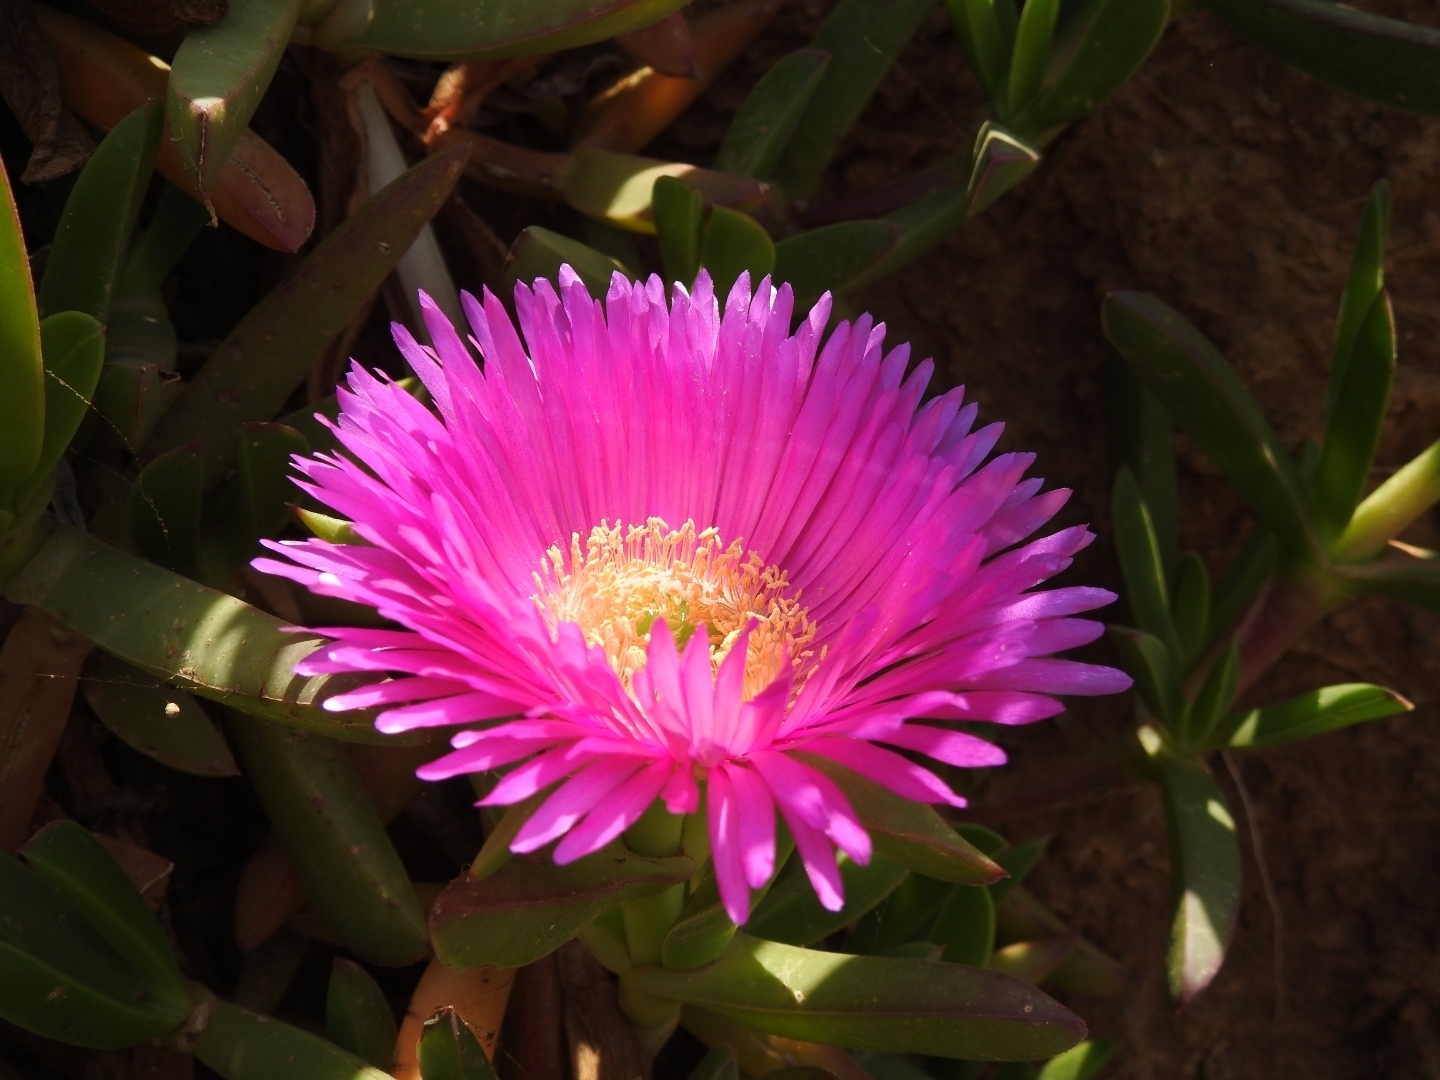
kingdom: Plantae
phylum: Tracheophyta
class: Magnoliopsida
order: Caryophyllales
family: Aizoaceae
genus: Carpobrotus
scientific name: Carpobrotus acinaciformis
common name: Sally-my-handsome
